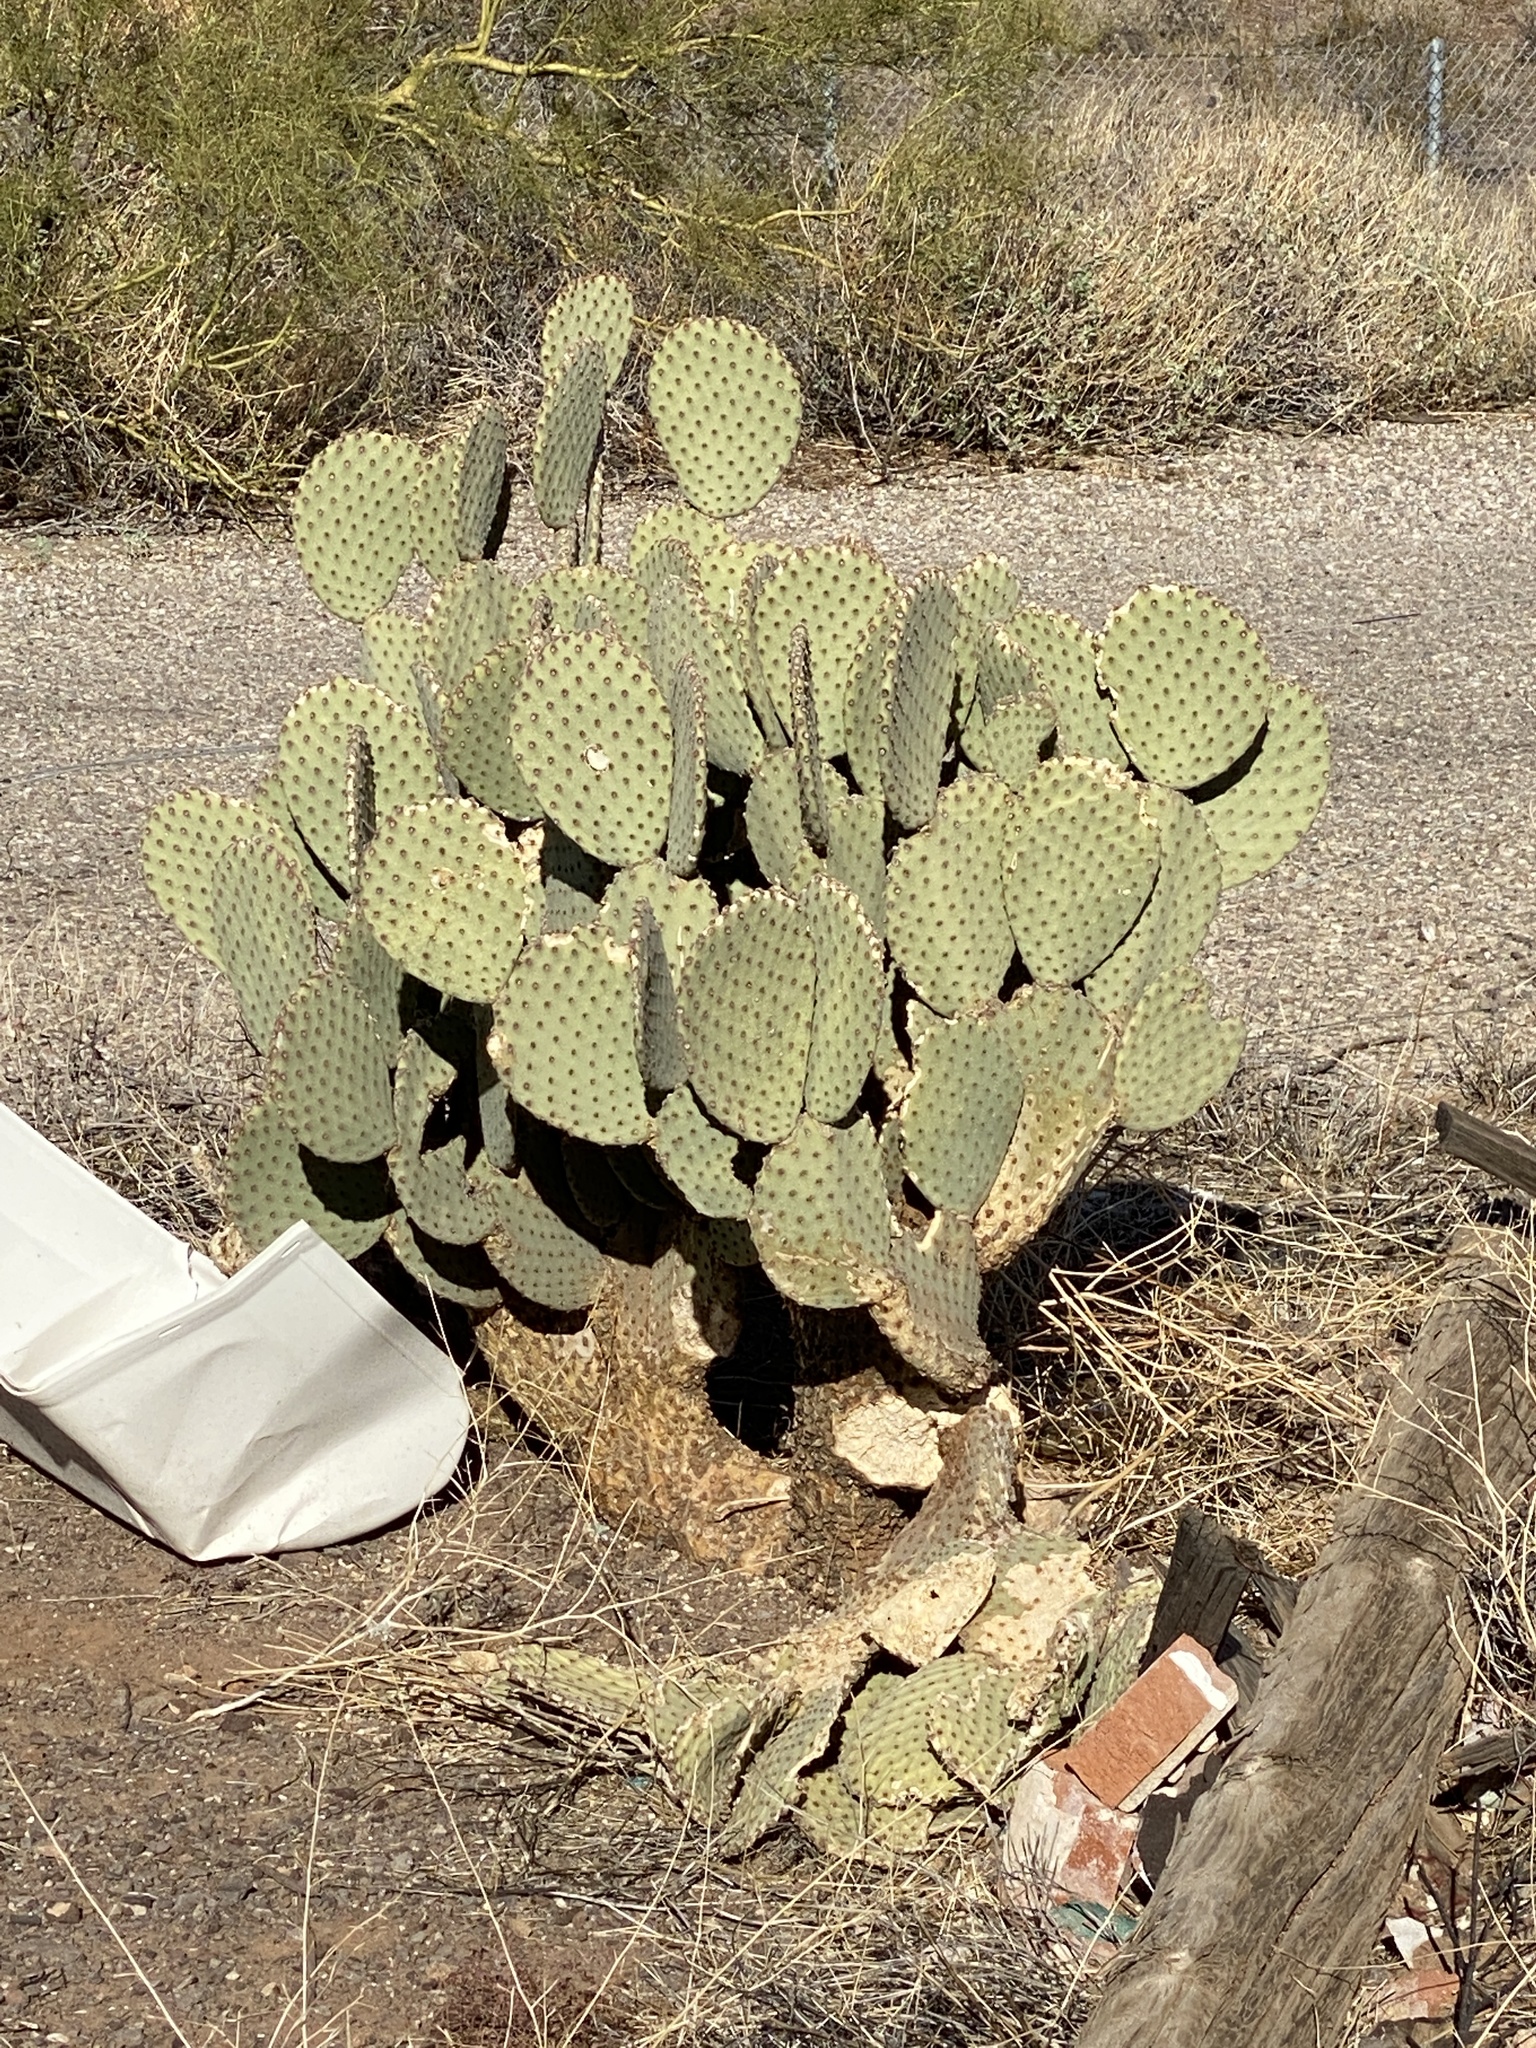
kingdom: Plantae
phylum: Tracheophyta
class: Magnoliopsida
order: Caryophyllales
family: Cactaceae
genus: Opuntia
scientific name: Opuntia rufida
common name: Blind pricklypear
